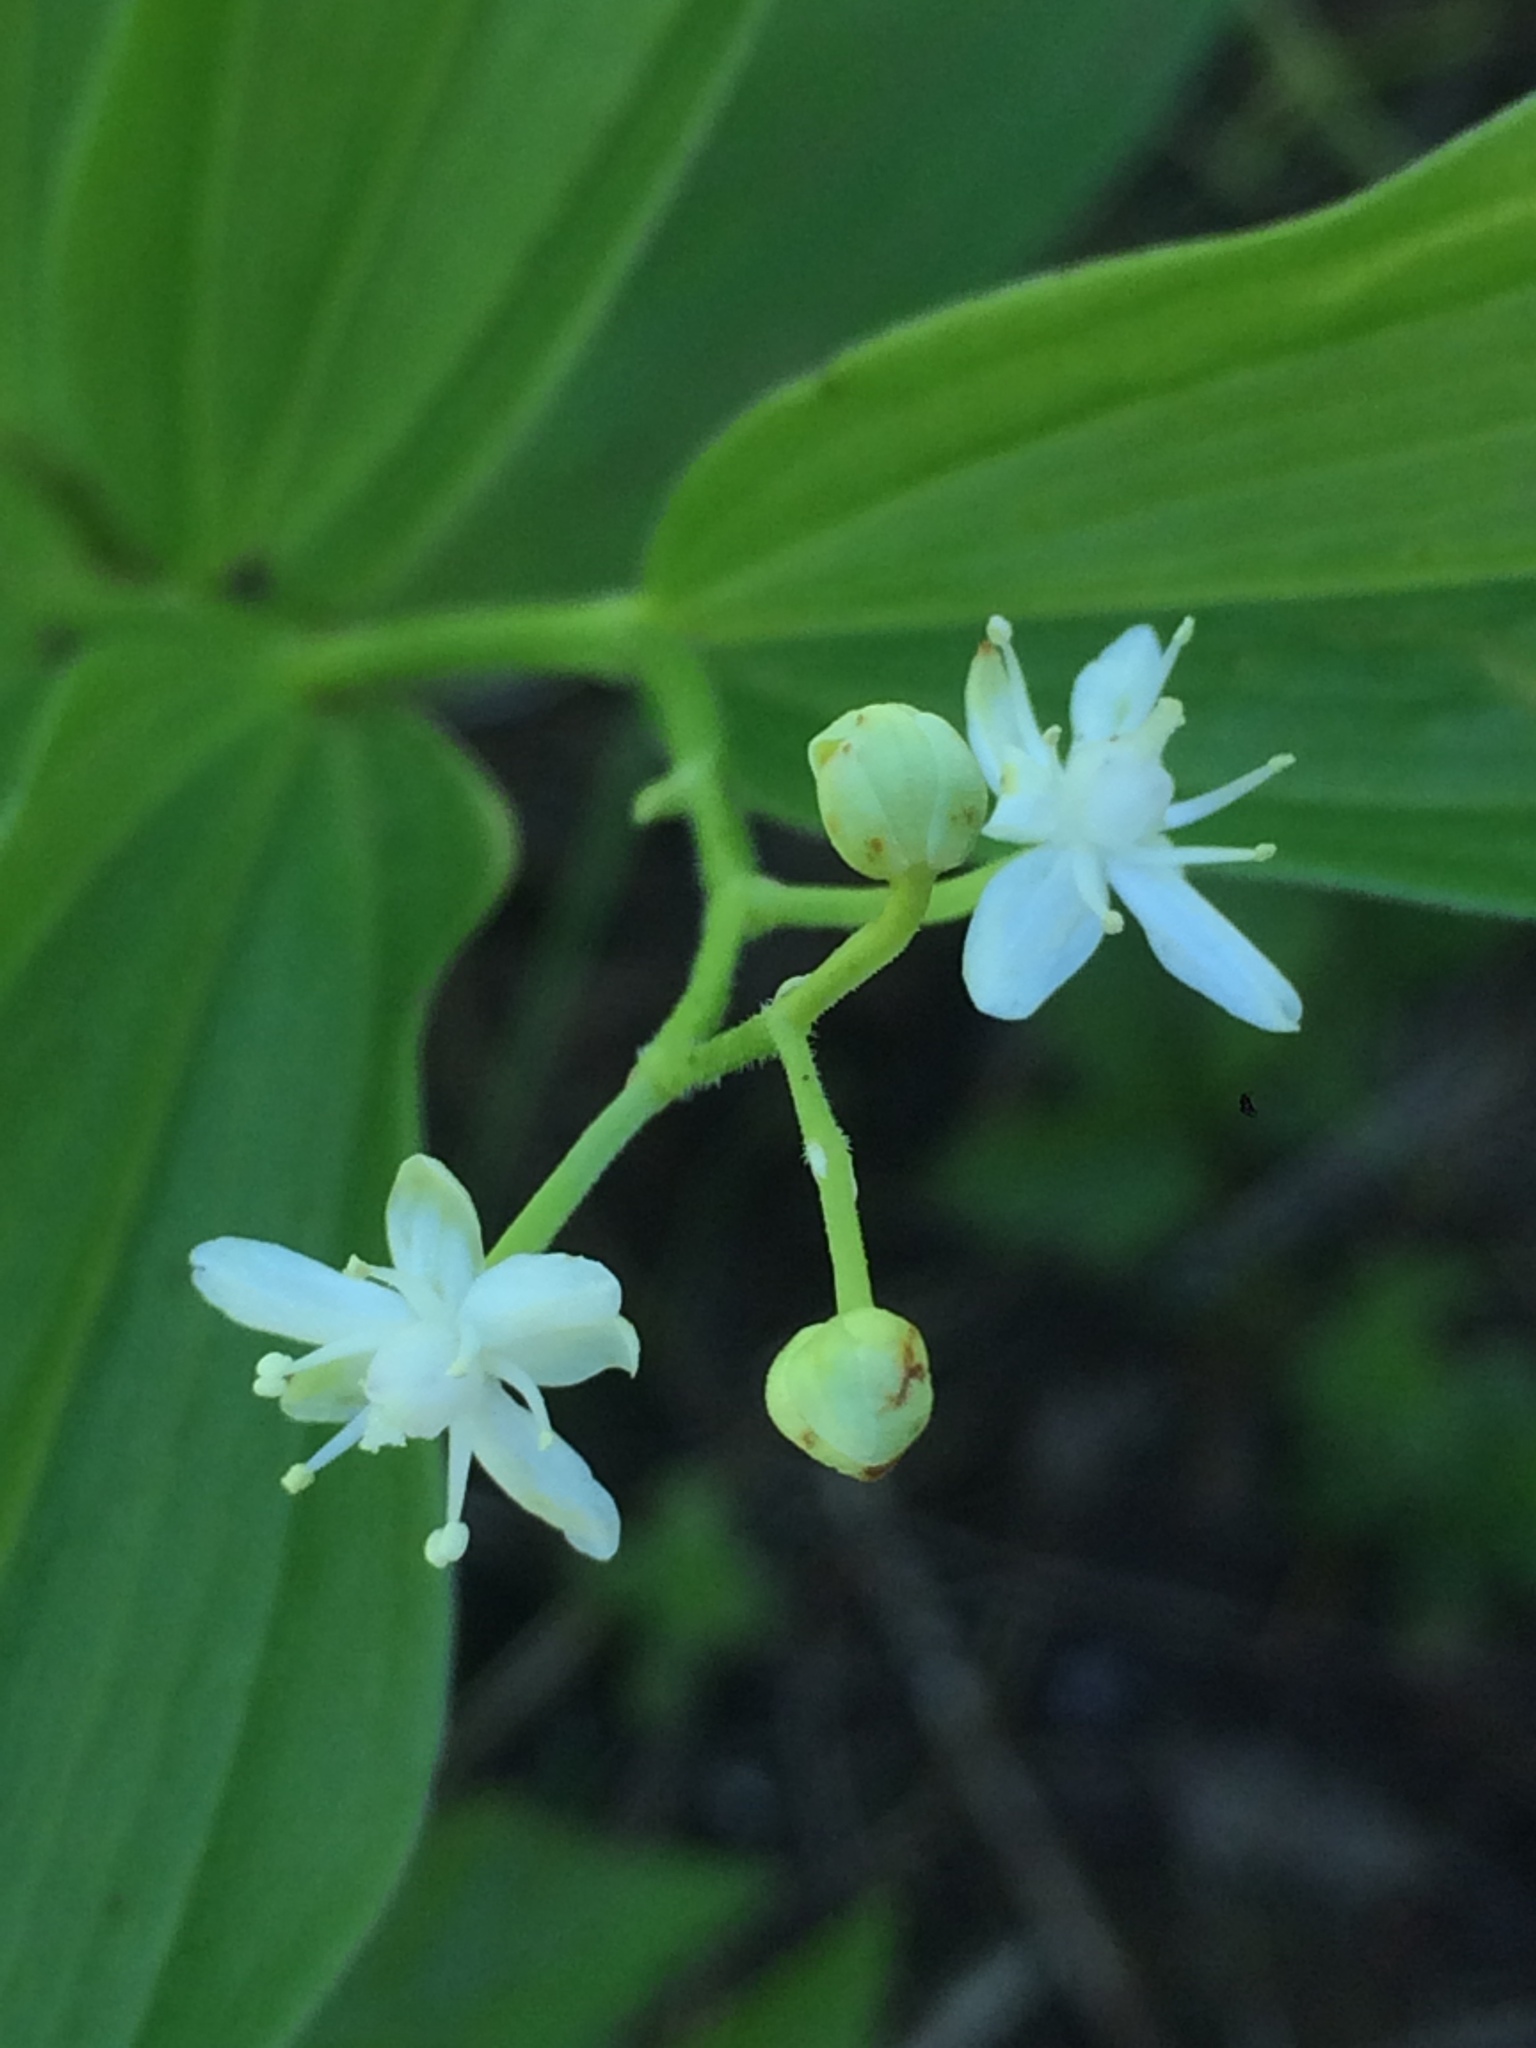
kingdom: Plantae
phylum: Tracheophyta
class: Liliopsida
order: Asparagales
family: Asparagaceae
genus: Maianthemum
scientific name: Maianthemum stellatum
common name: Little false solomon's seal
